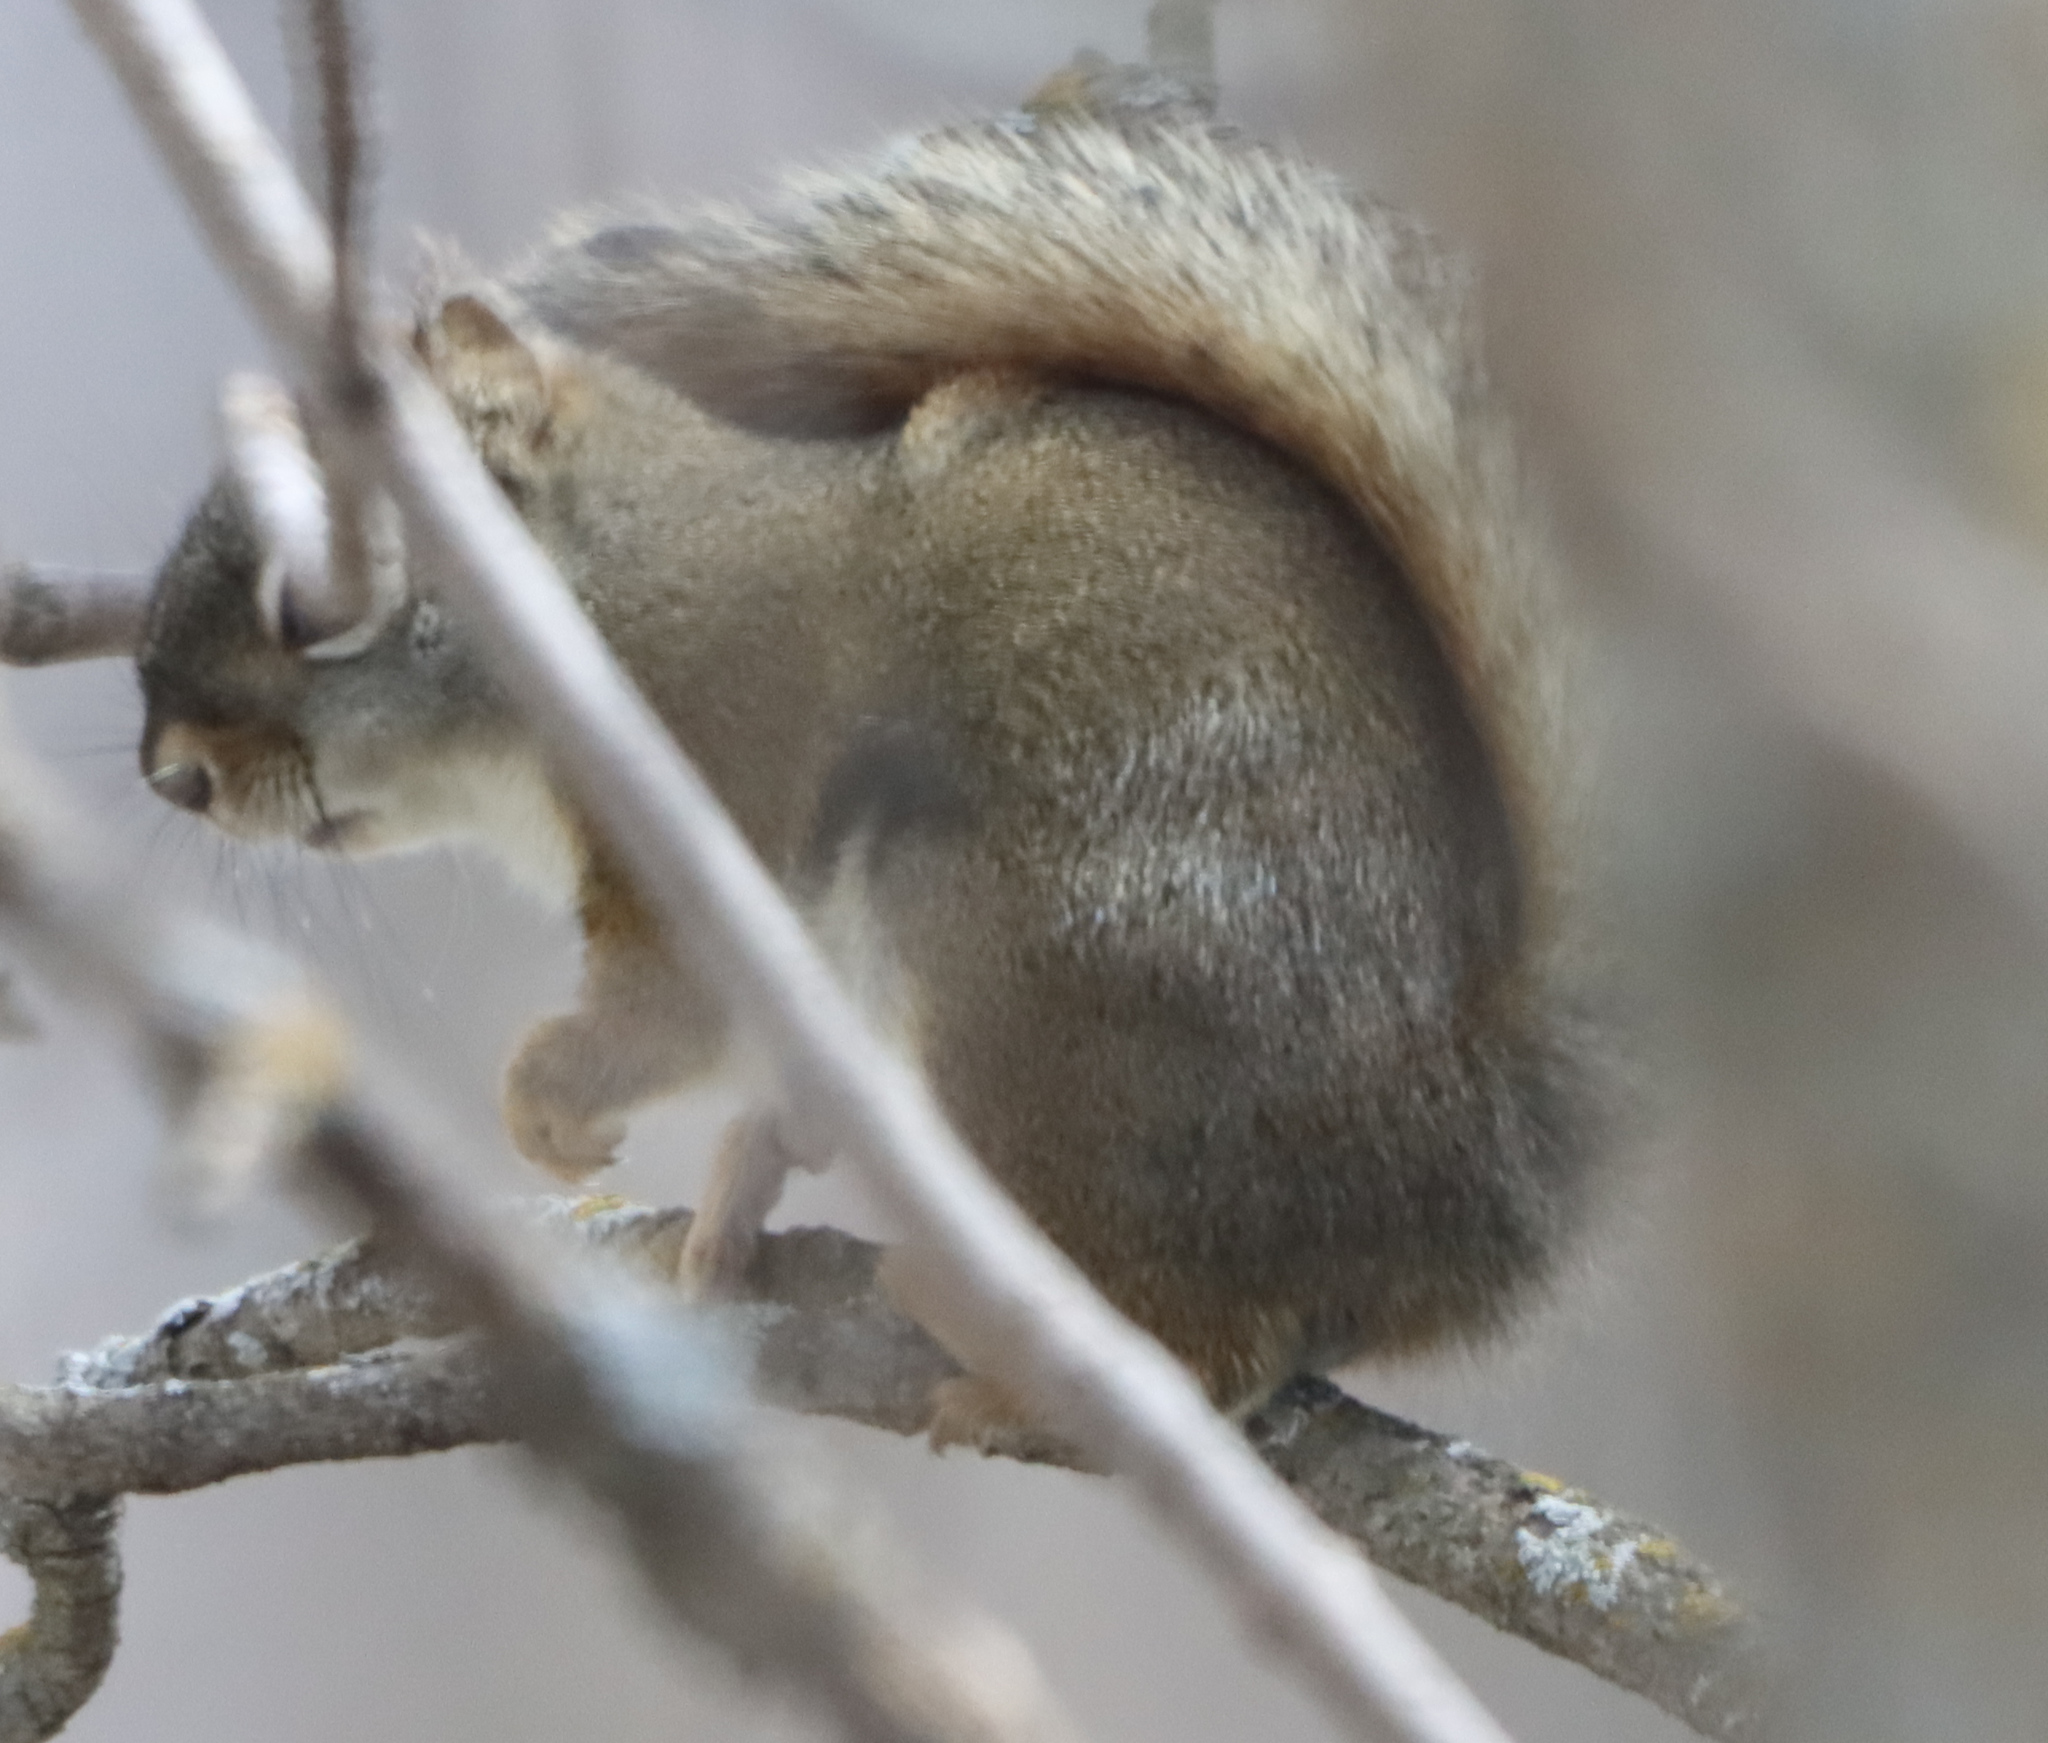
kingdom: Animalia
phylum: Chordata
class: Mammalia
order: Rodentia
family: Sciuridae
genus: Tamiasciurus
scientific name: Tamiasciurus hudsonicus
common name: Red squirrel
